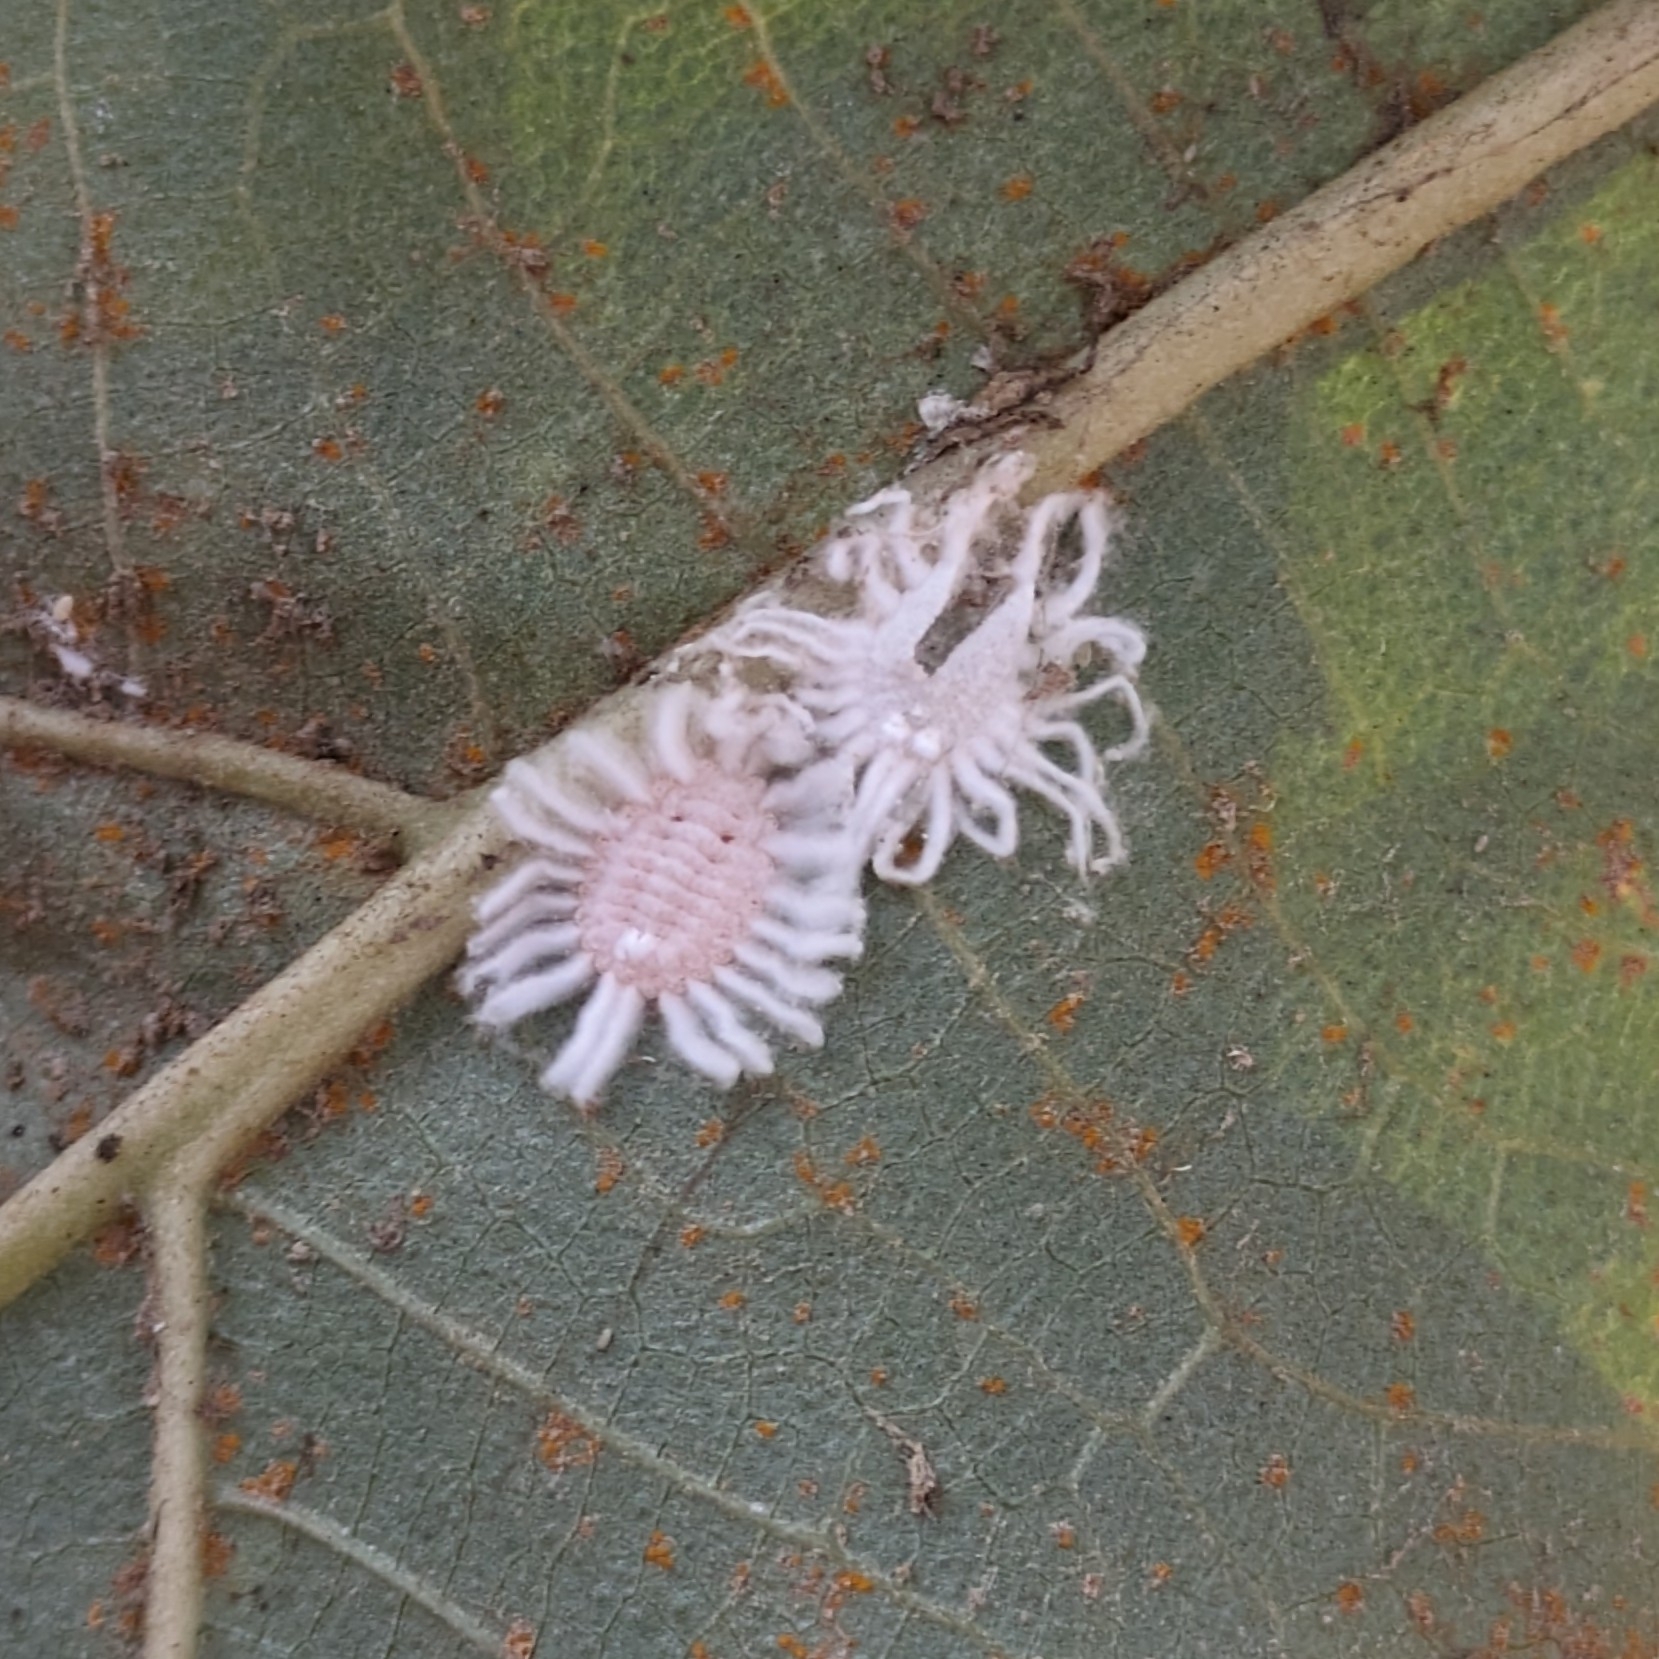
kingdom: Animalia
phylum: Arthropoda
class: Insecta
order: Hemiptera
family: Margarodidae
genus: Icerya
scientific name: Icerya aegyptiaca
